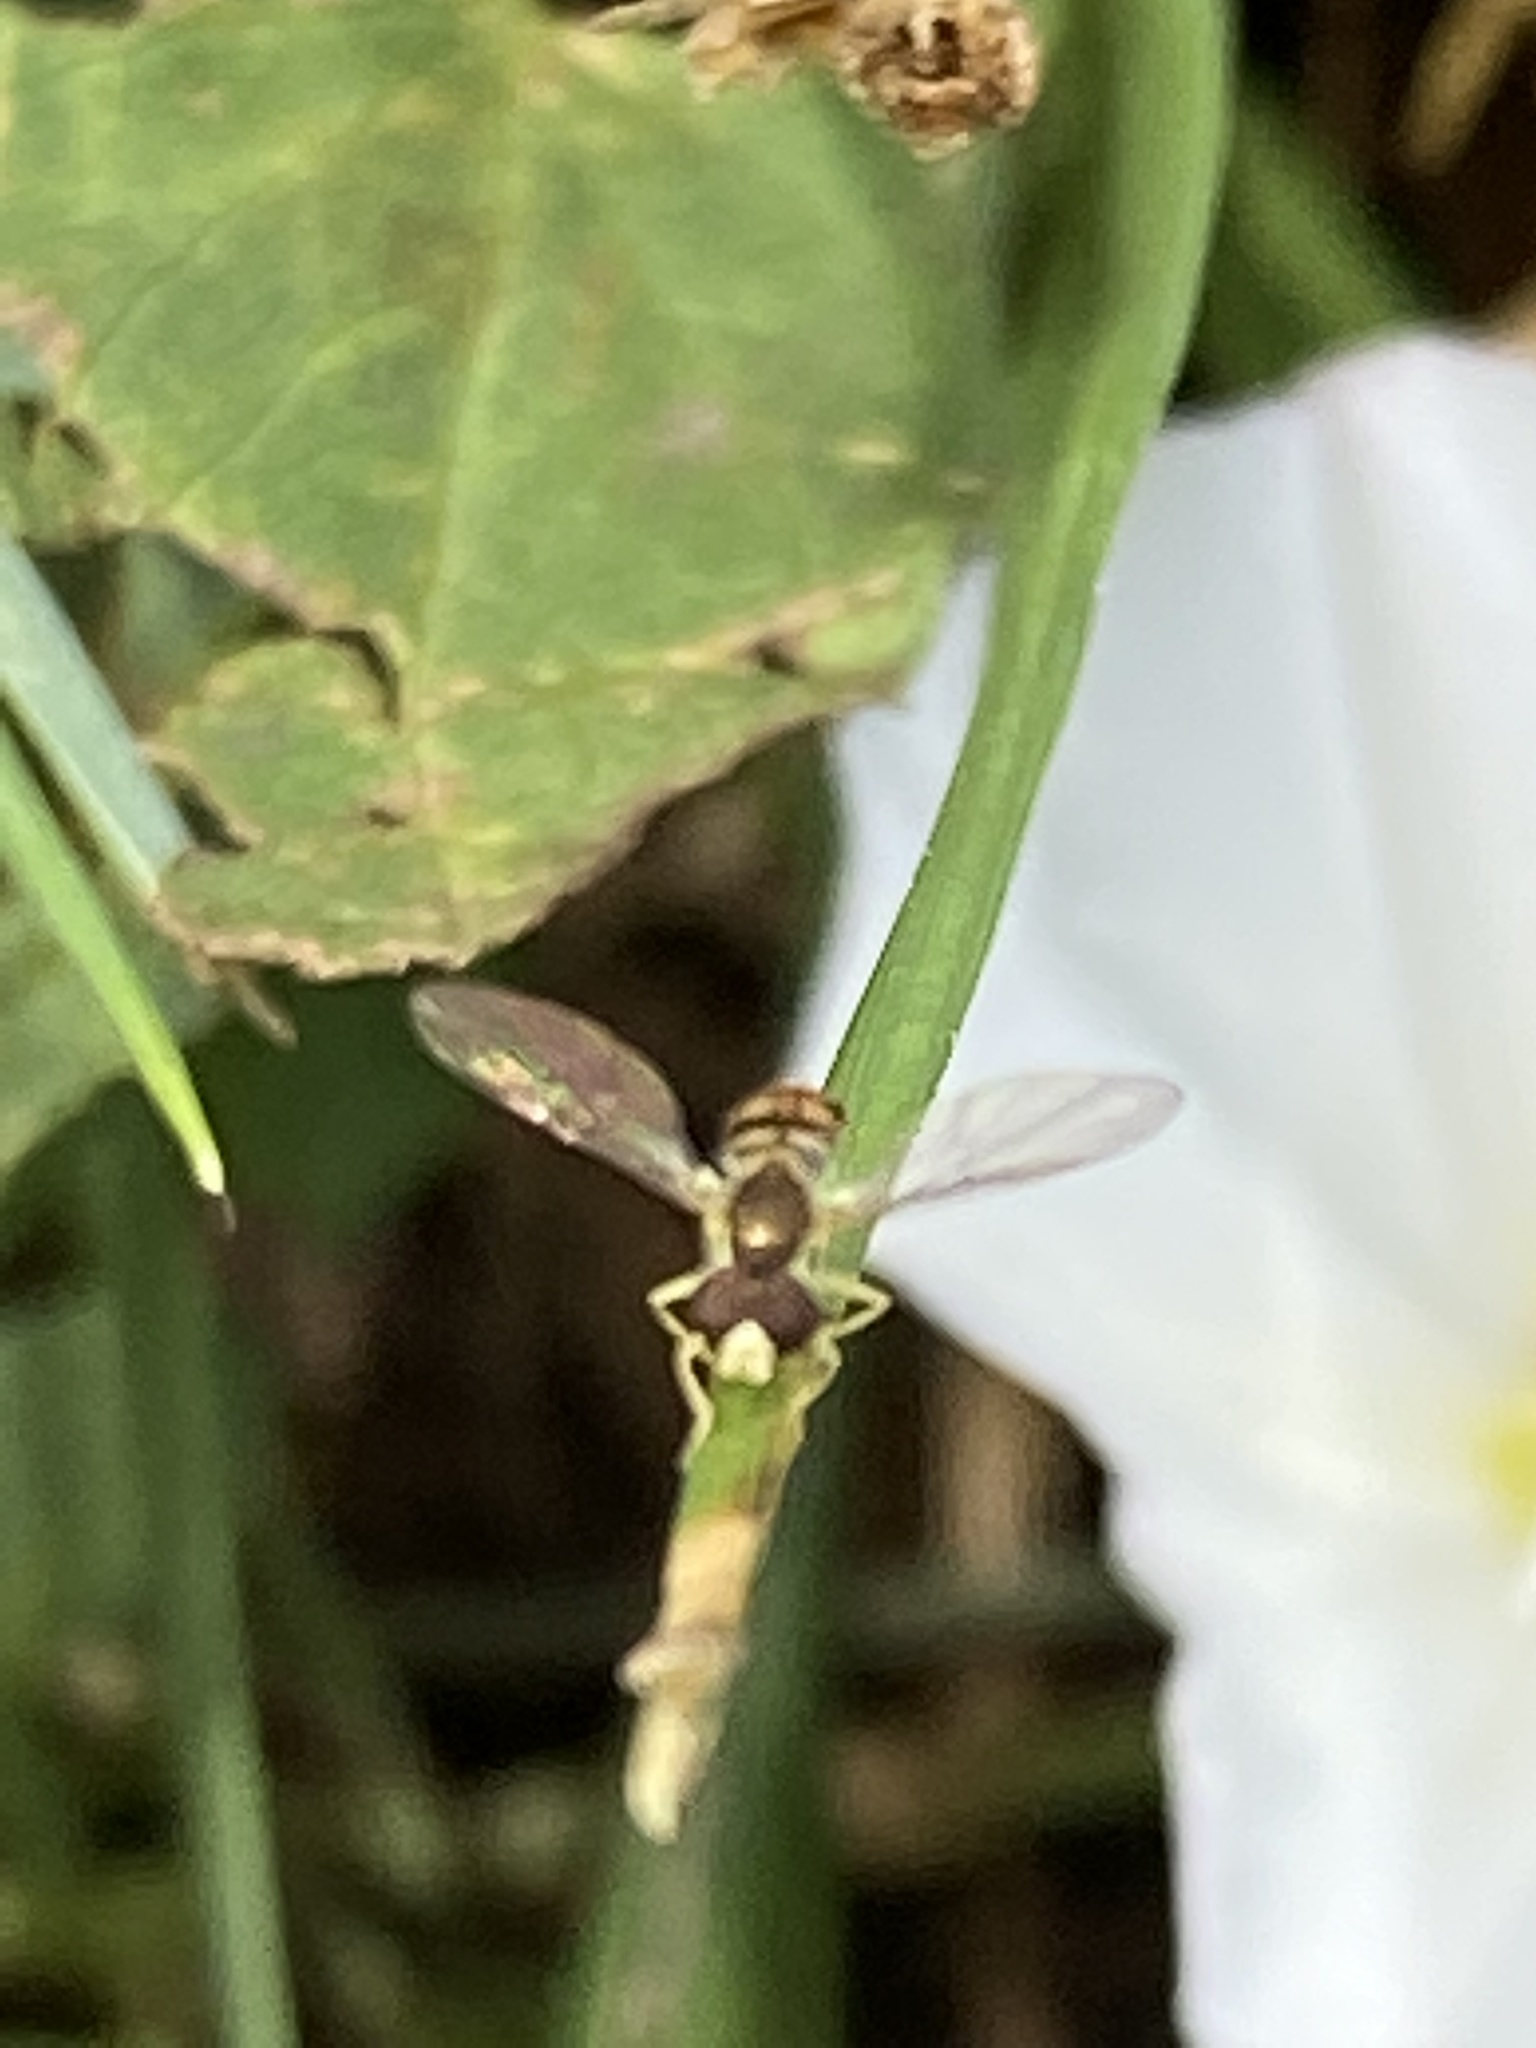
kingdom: Animalia
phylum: Arthropoda
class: Insecta
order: Diptera
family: Syrphidae
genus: Toxomerus
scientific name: Toxomerus marginatus
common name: Syrphid fly
